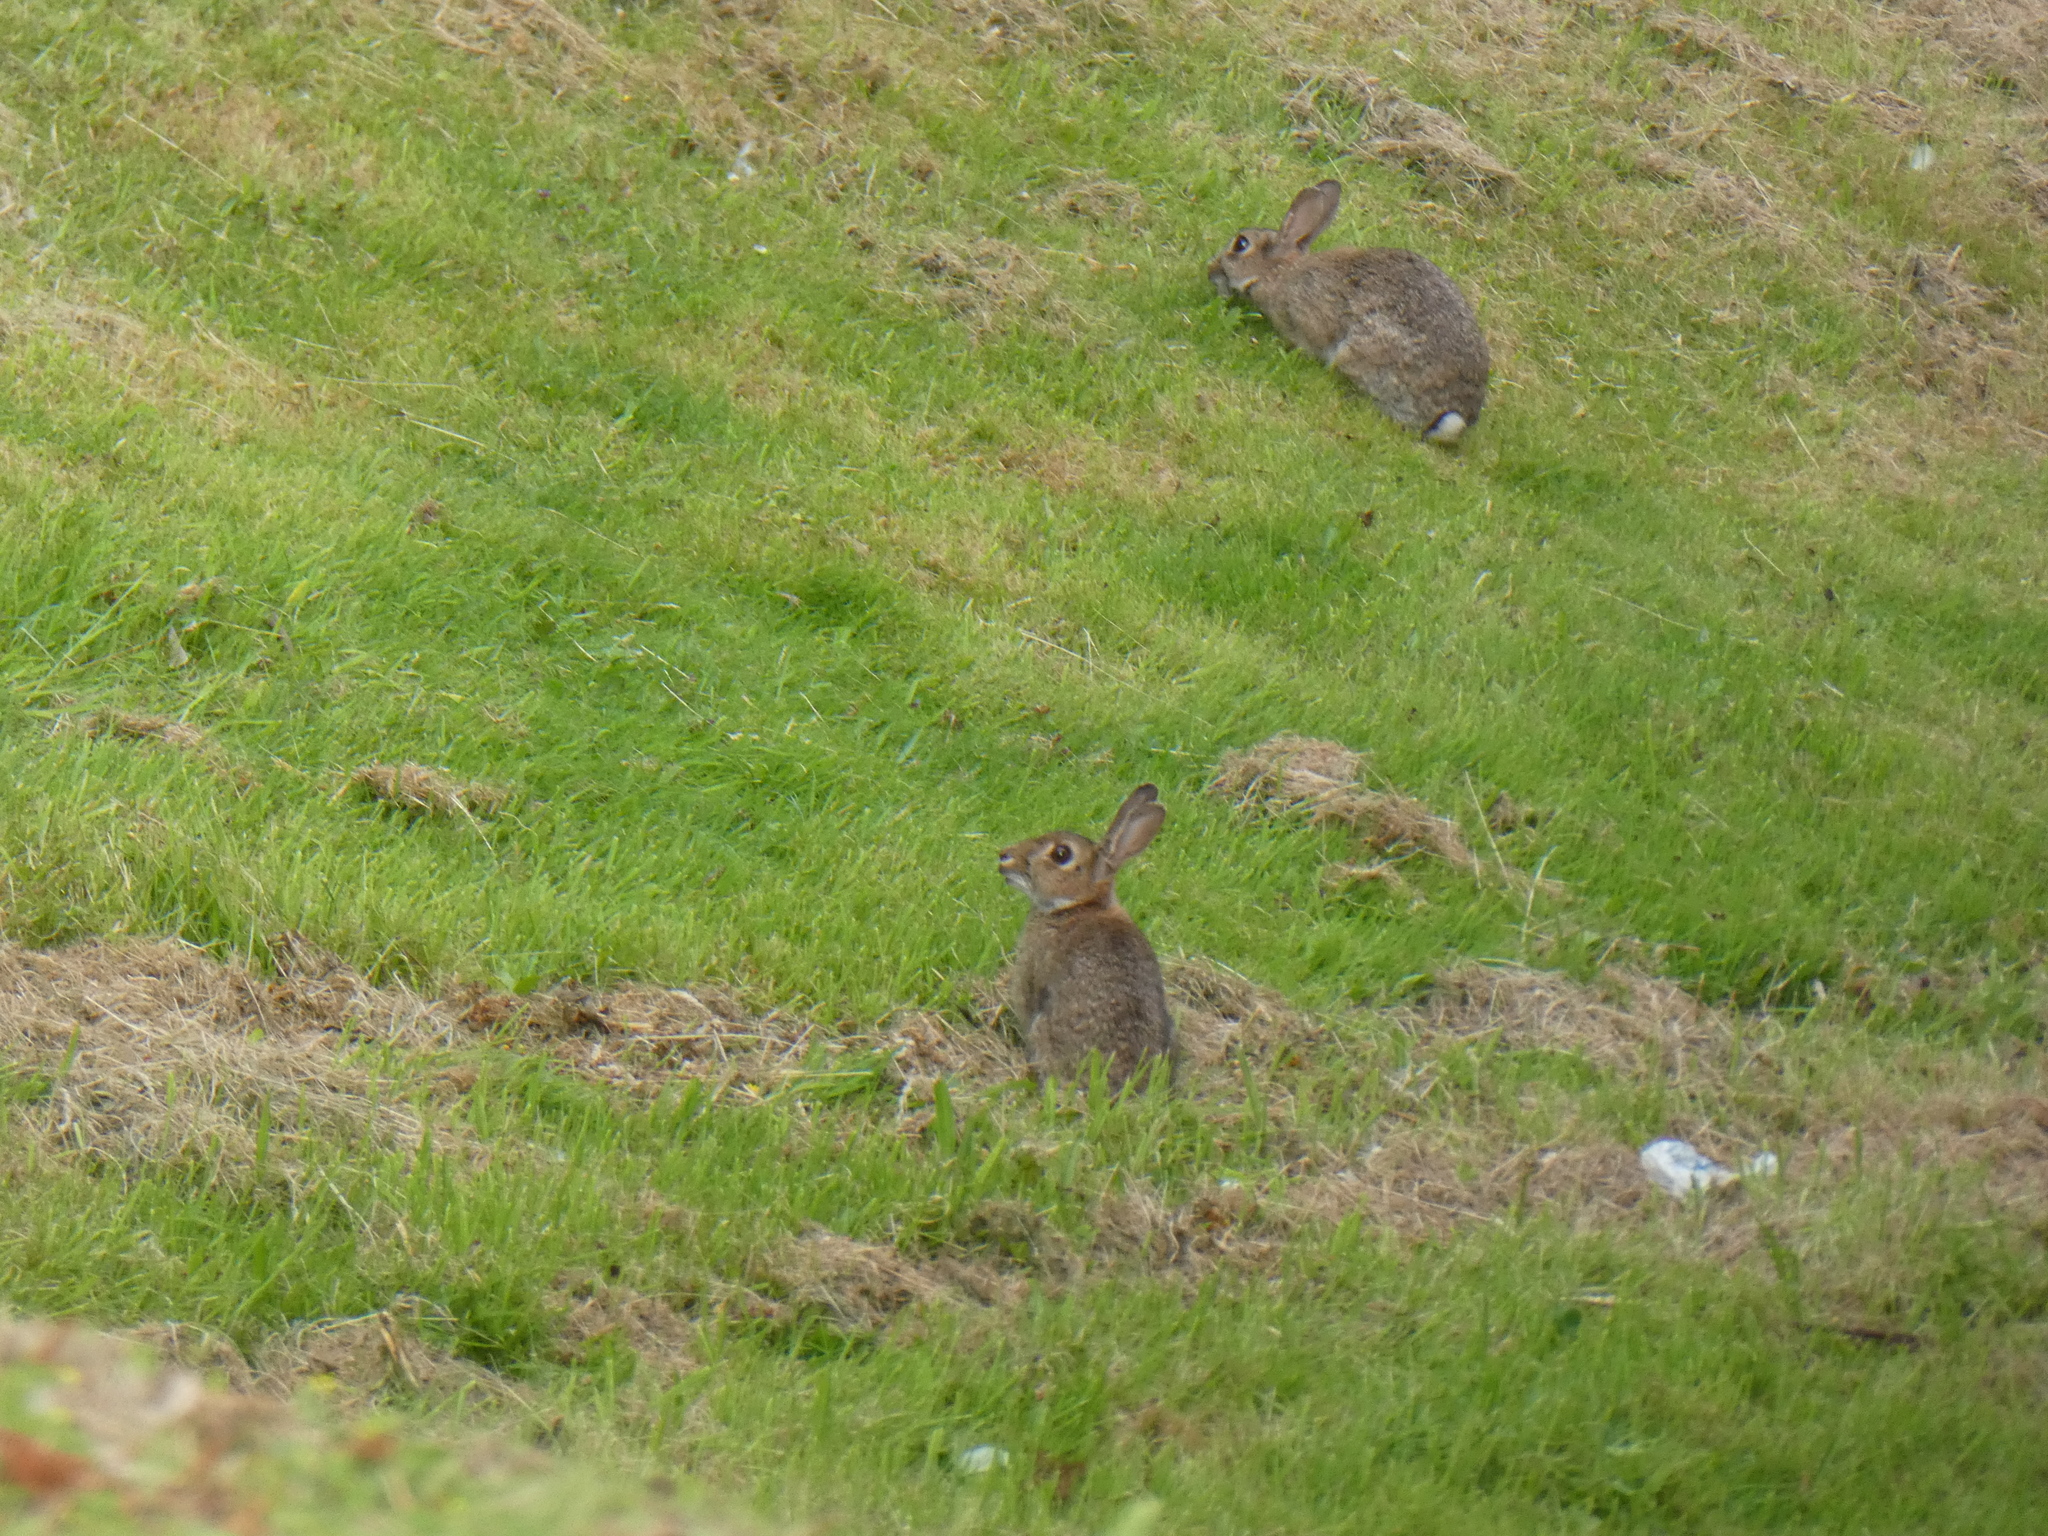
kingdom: Animalia
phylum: Chordata
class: Mammalia
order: Lagomorpha
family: Leporidae
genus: Oryctolagus
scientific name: Oryctolagus cuniculus
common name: European rabbit
